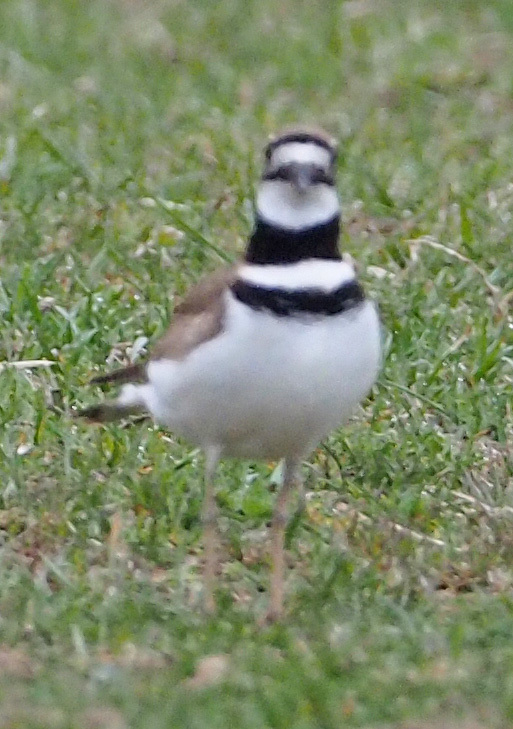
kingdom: Animalia
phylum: Chordata
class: Aves
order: Charadriiformes
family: Charadriidae
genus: Charadrius
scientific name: Charadrius vociferus
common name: Killdeer
